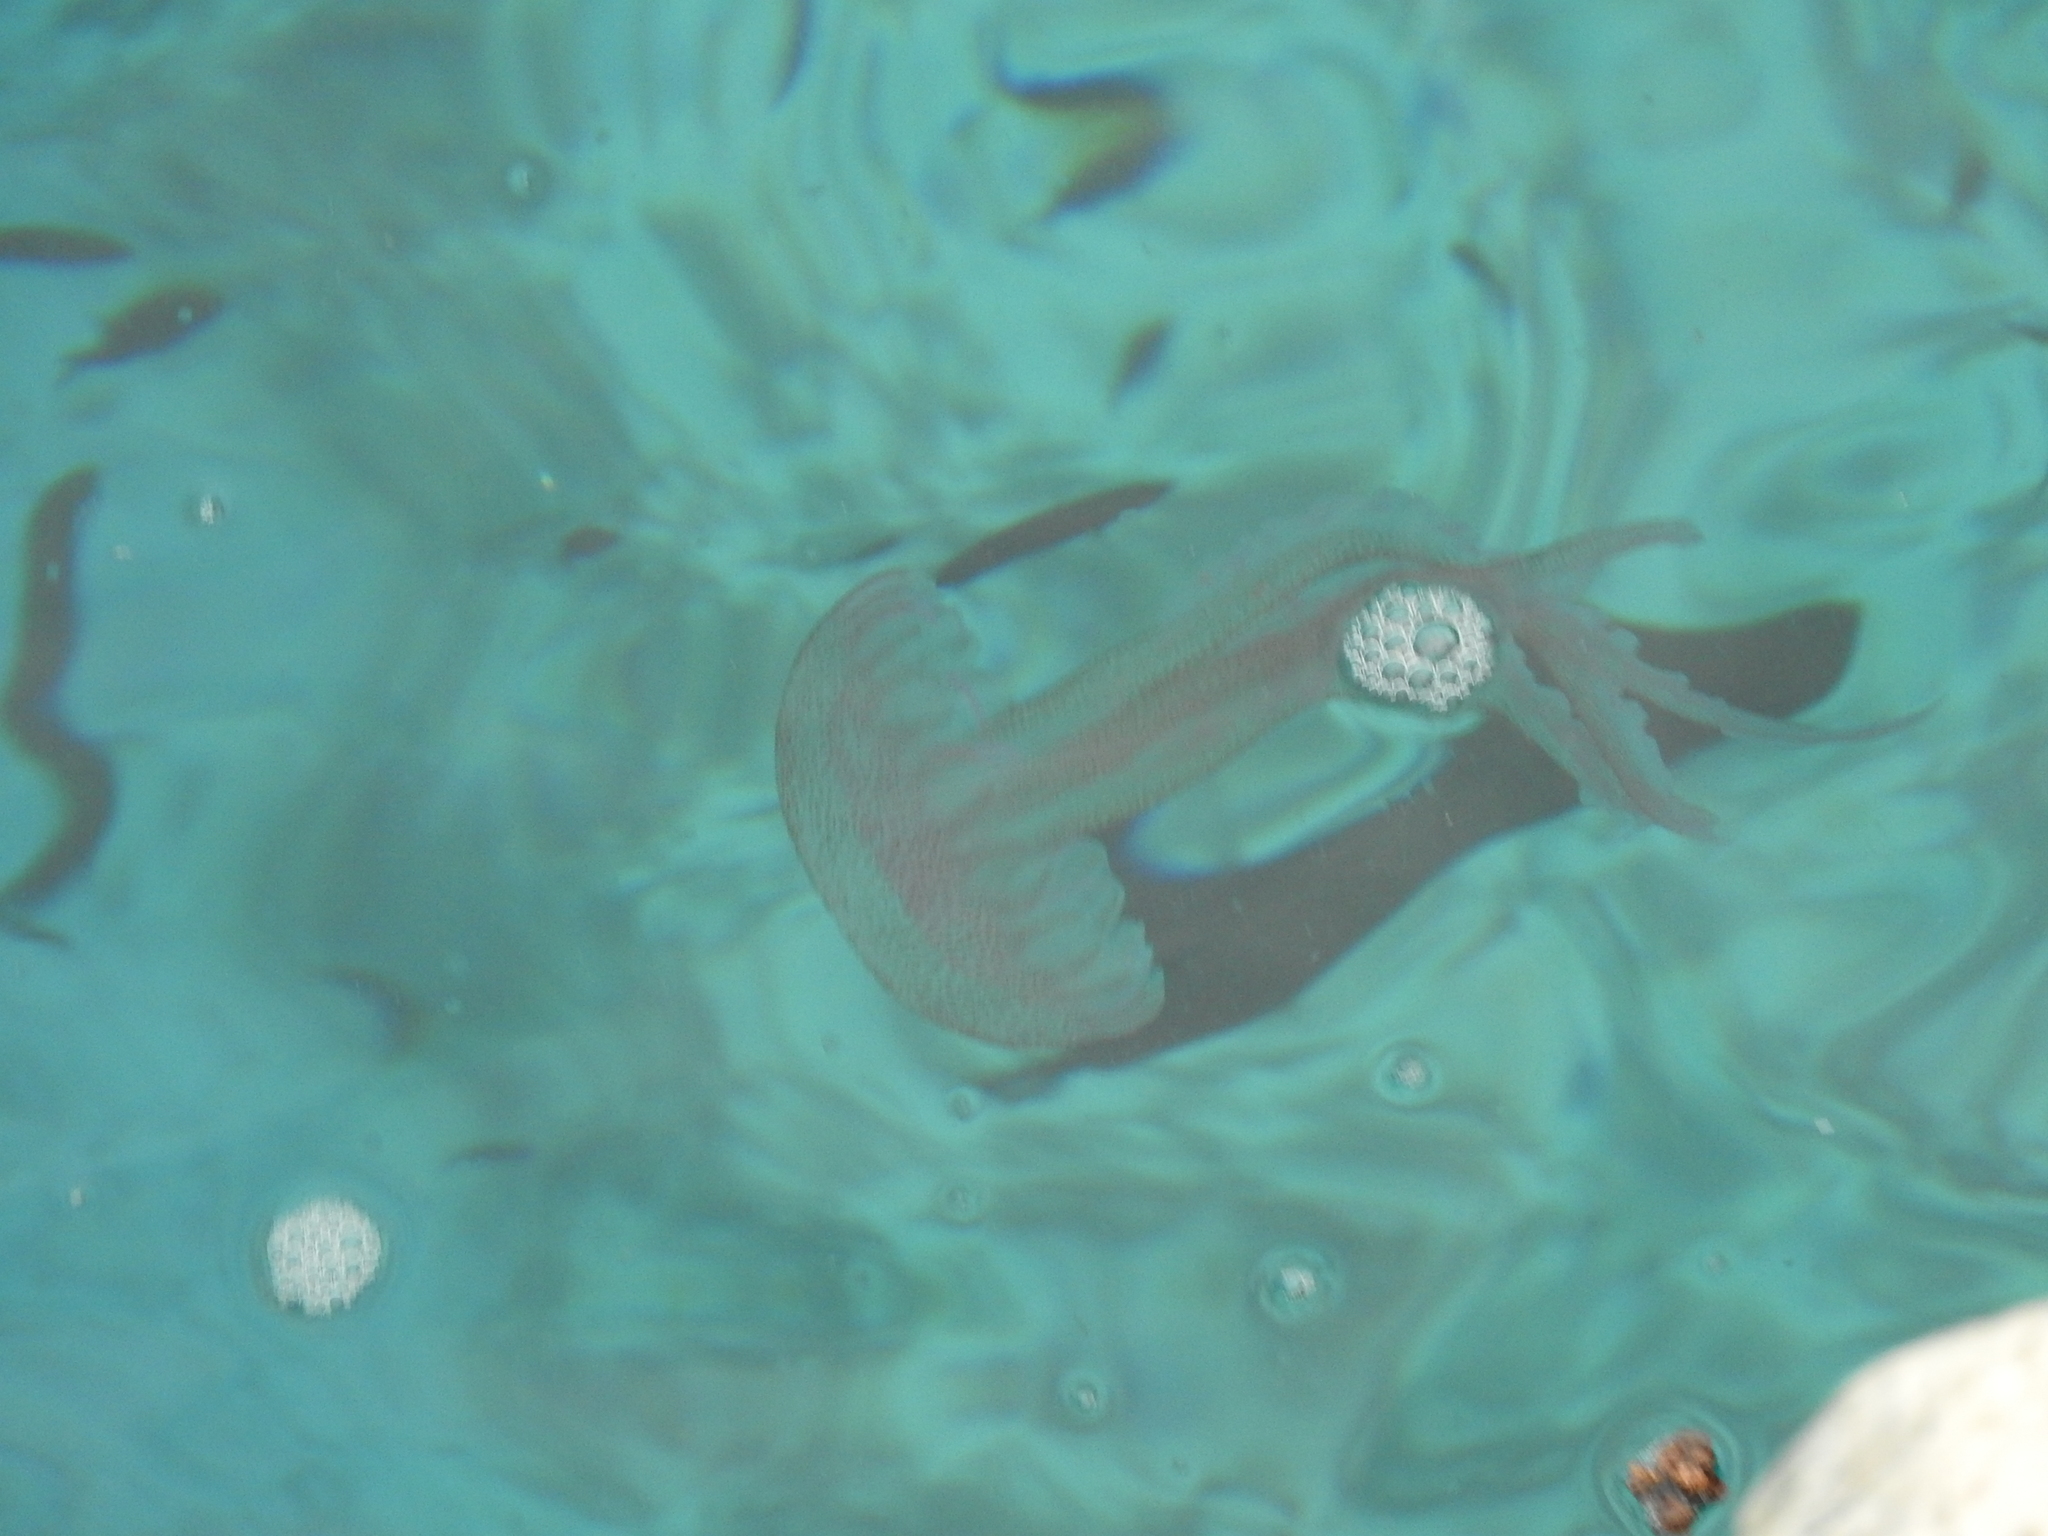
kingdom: Animalia
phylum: Cnidaria
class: Scyphozoa
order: Semaeostomeae
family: Pelagiidae
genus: Pelagia
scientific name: Pelagia noctiluca
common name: Mauve stinger
